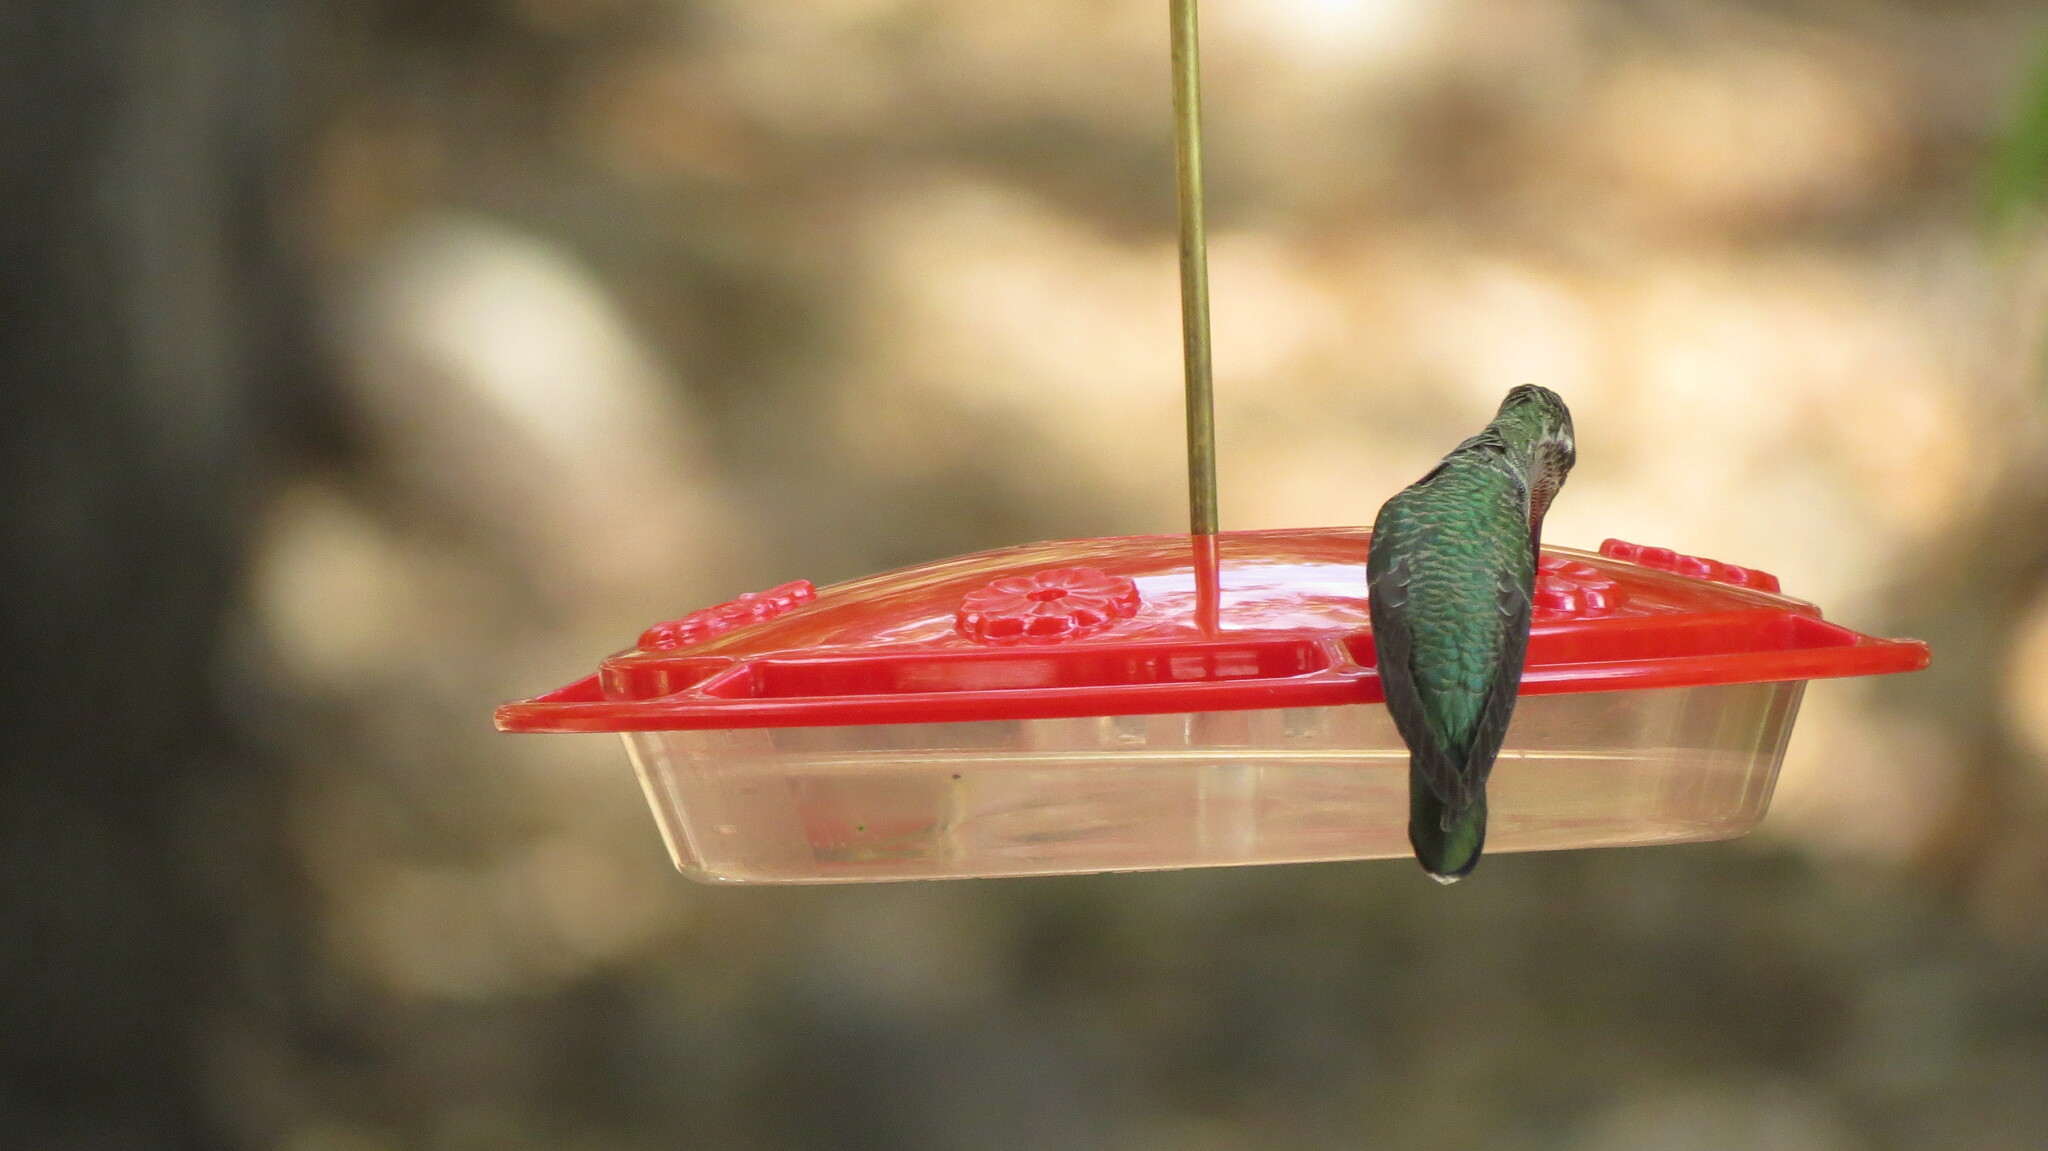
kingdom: Animalia
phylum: Chordata
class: Aves
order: Apodiformes
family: Trochilidae
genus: Eugenes
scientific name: Eugenes fulgens
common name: Magnificent hummingbird
